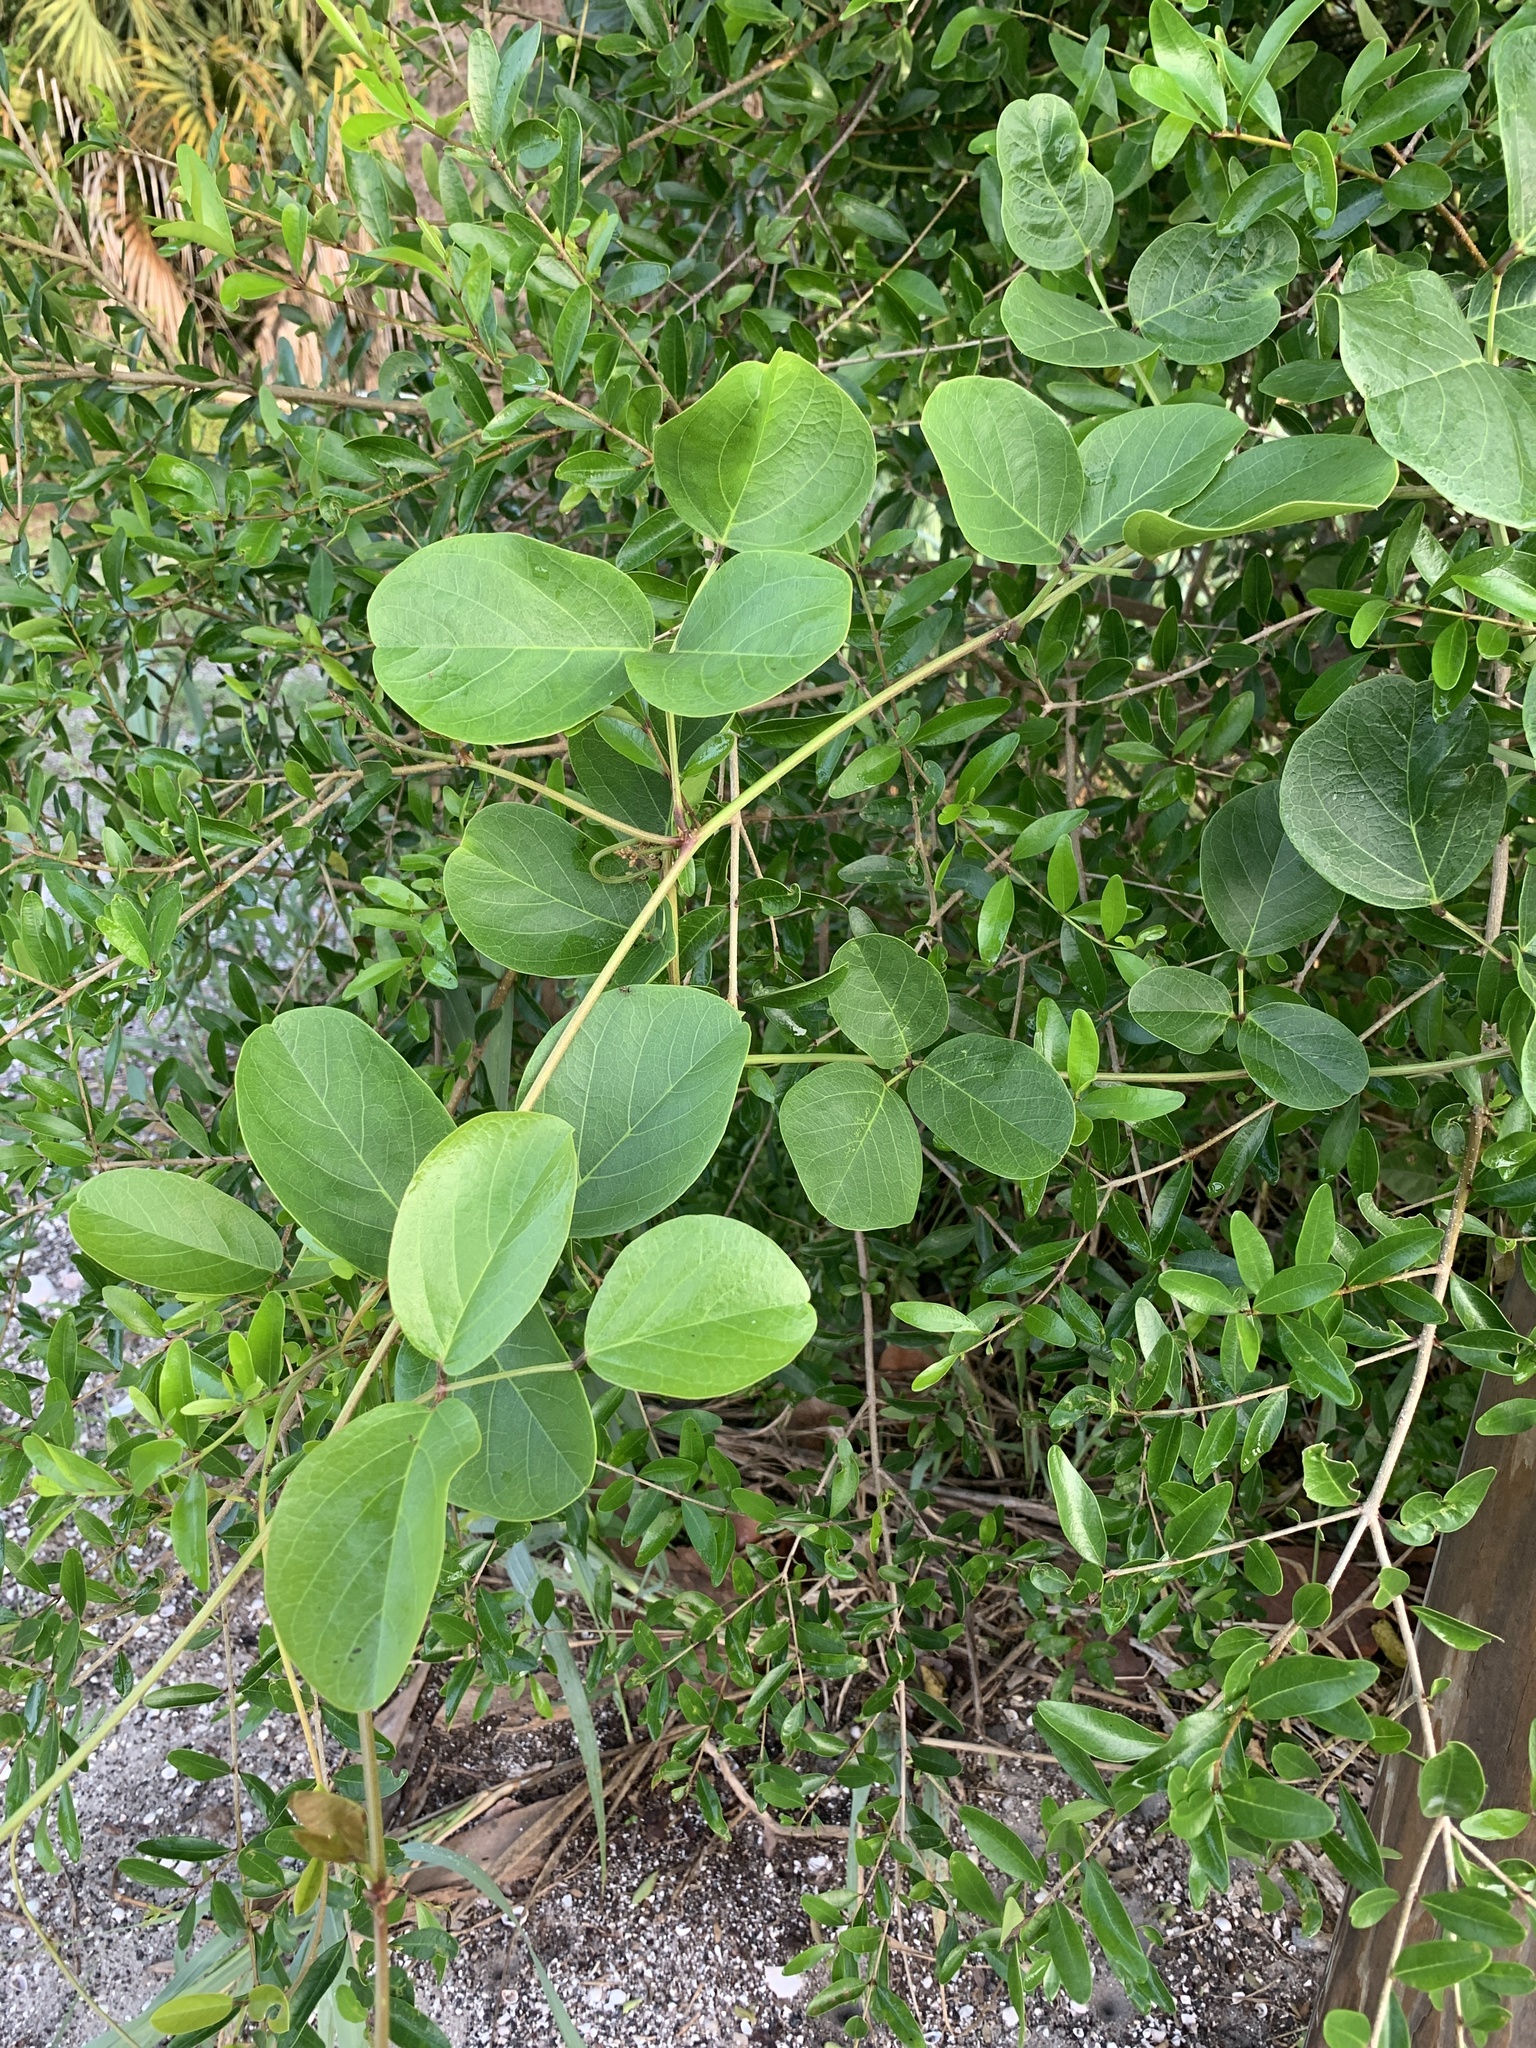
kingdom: Plantae
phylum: Tracheophyta
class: Magnoliopsida
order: Fabales
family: Fabaceae
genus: Canavalia
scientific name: Canavalia rosea
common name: Beach-bean
